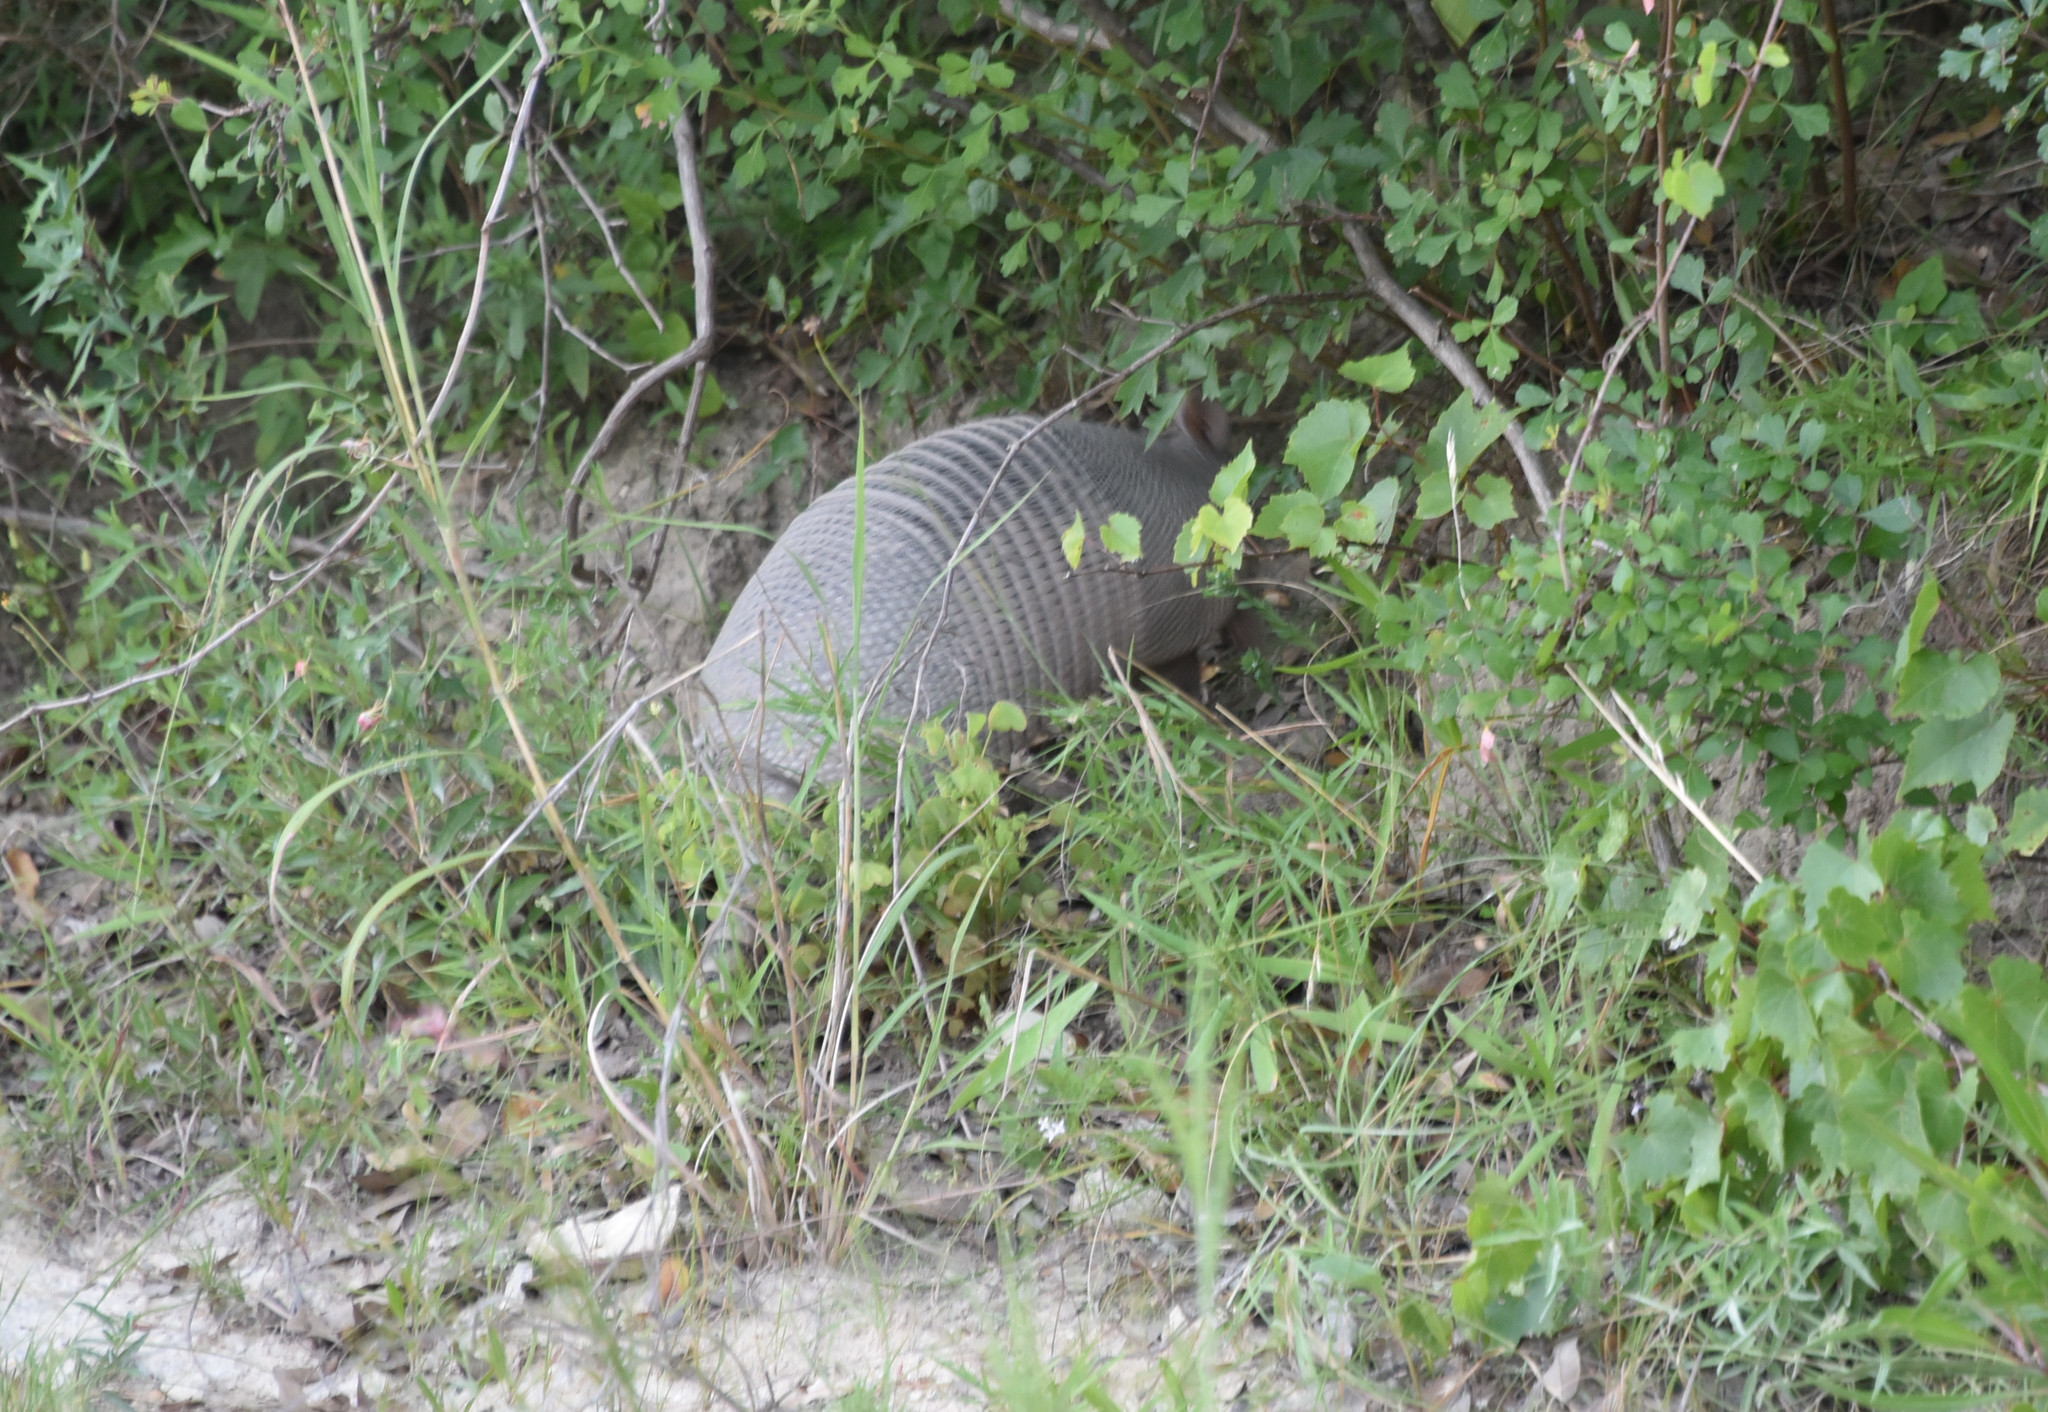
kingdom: Animalia
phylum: Chordata
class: Mammalia
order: Cingulata
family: Dasypodidae
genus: Dasypus
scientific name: Dasypus novemcinctus
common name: Nine-banded armadillo
